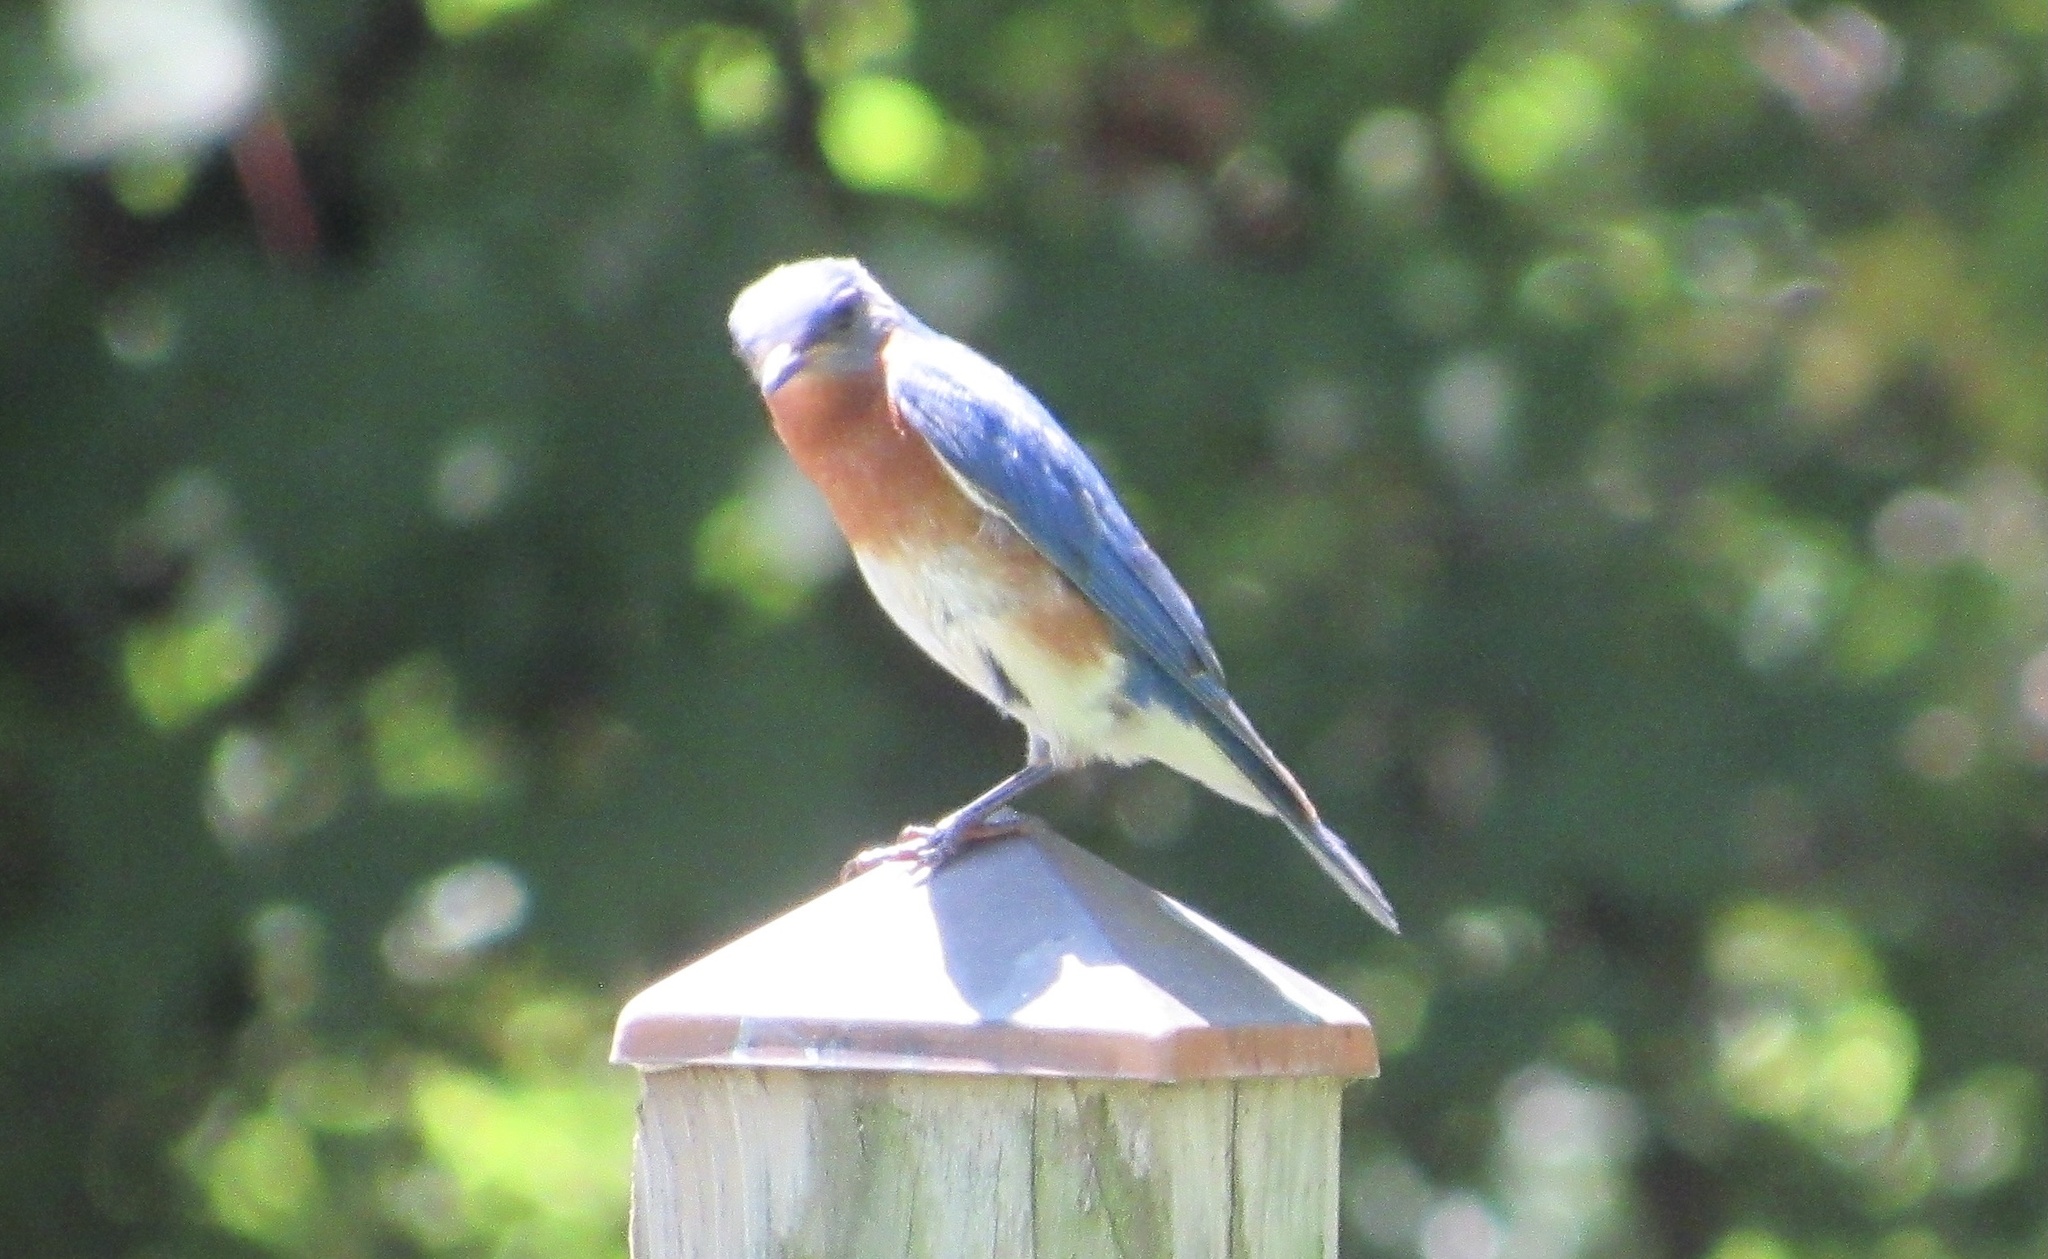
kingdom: Animalia
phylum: Chordata
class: Aves
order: Passeriformes
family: Turdidae
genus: Sialia
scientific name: Sialia sialis
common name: Eastern bluebird
